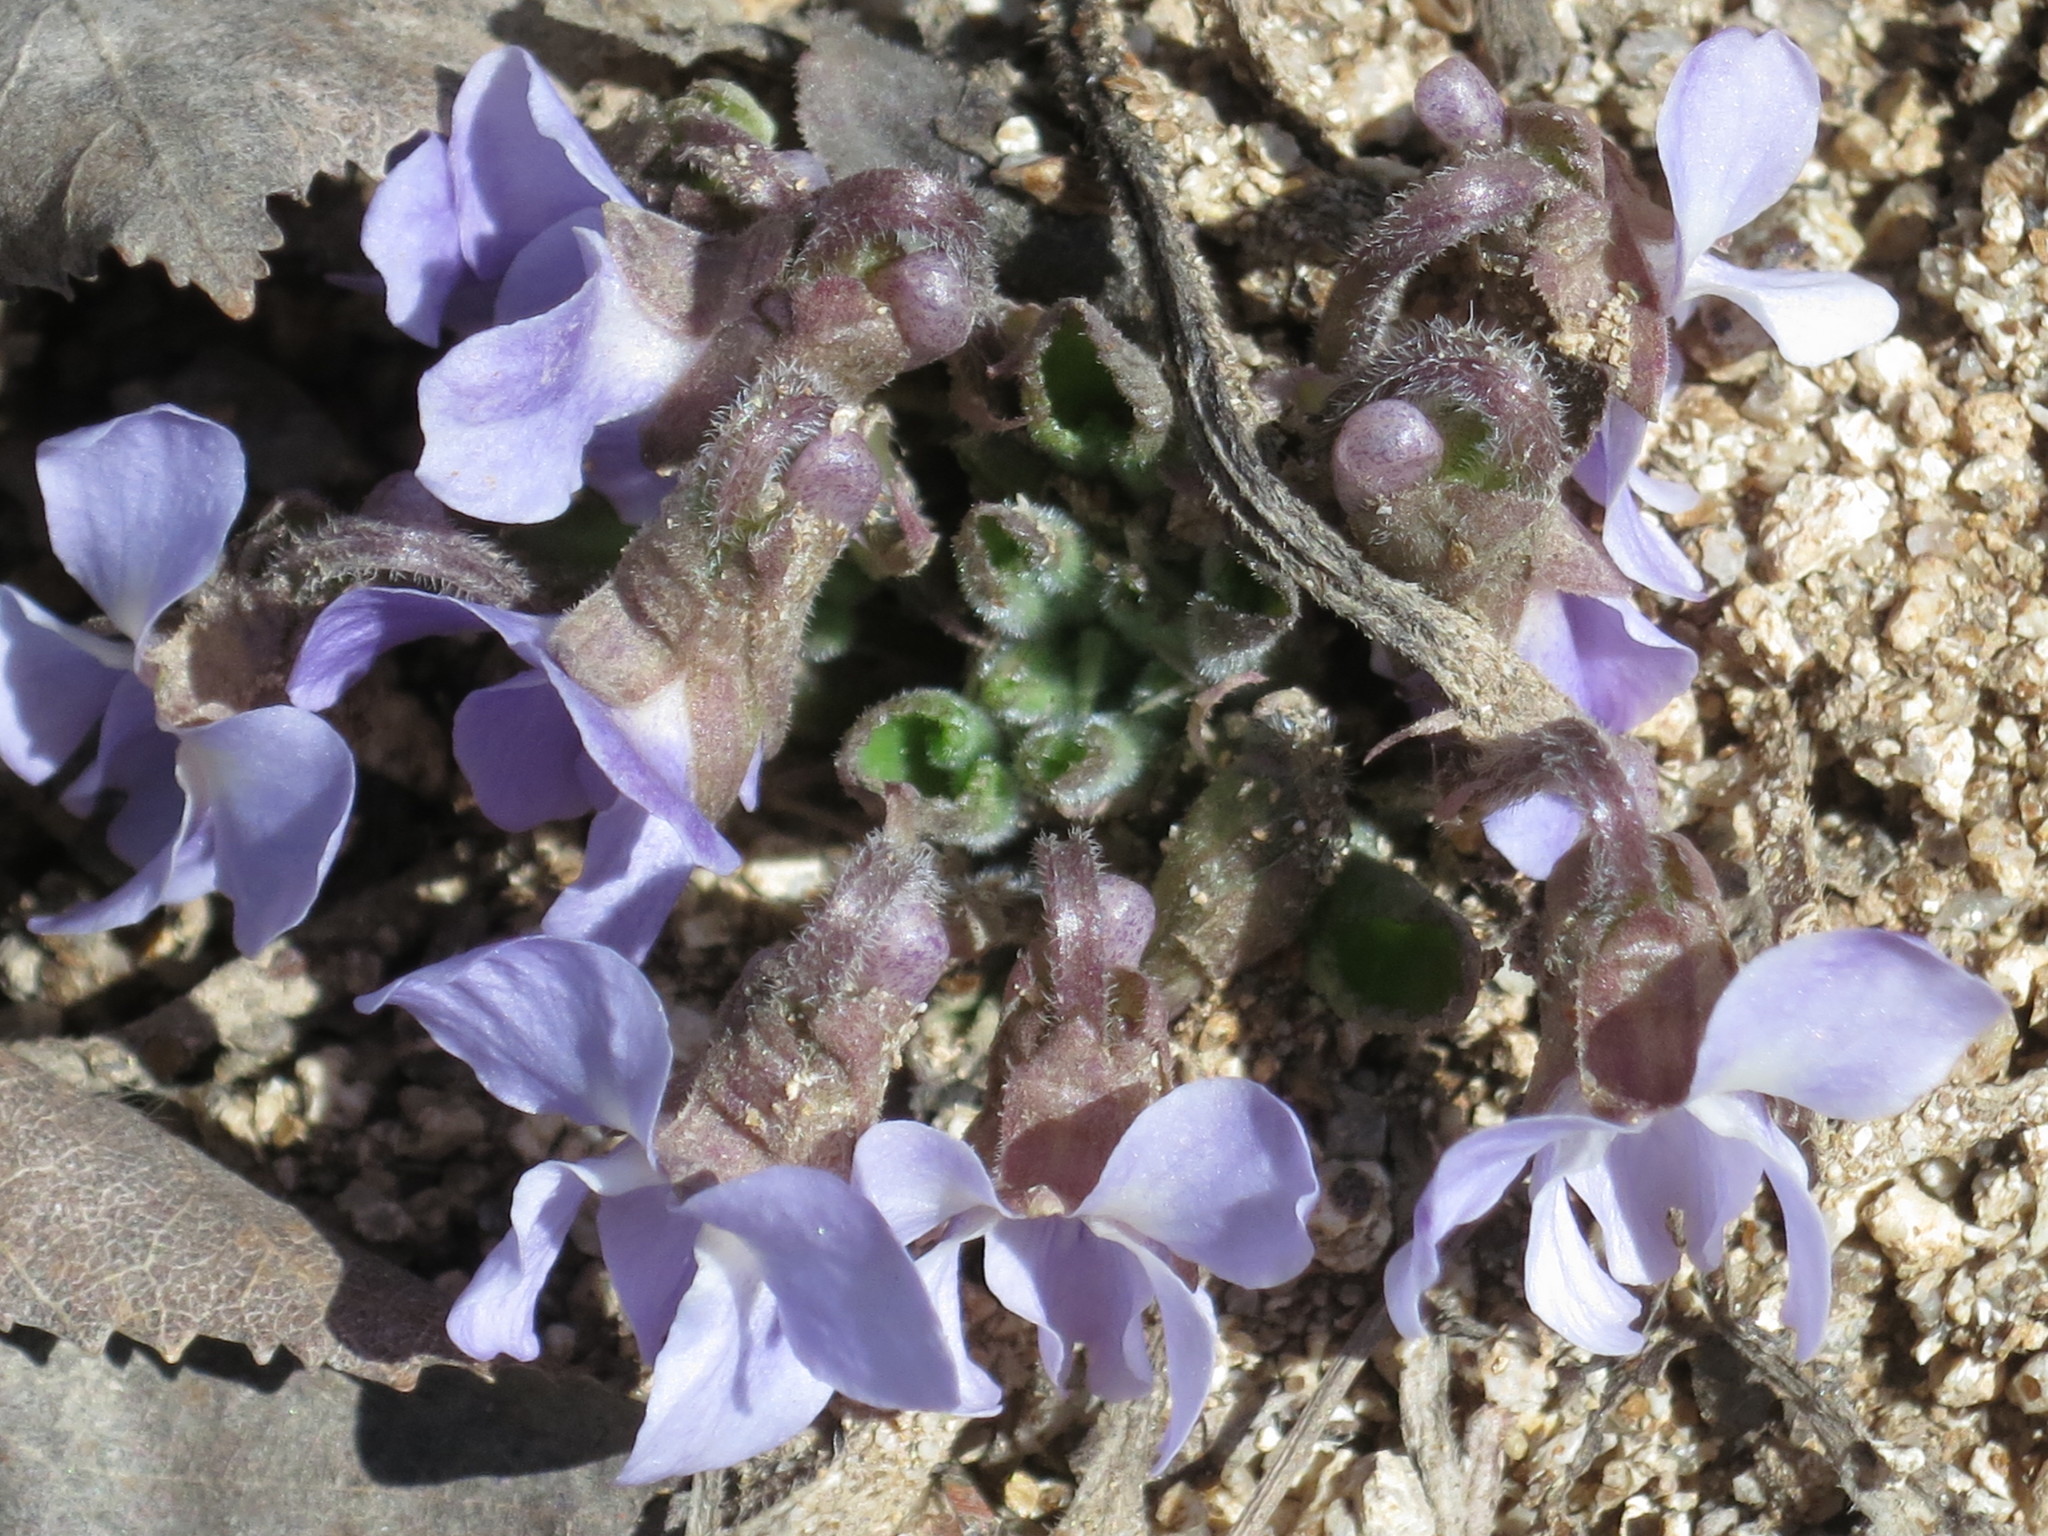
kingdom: Plantae
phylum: Tracheophyta
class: Magnoliopsida
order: Malpighiales
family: Violaceae
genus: Viola
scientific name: Viola collina
